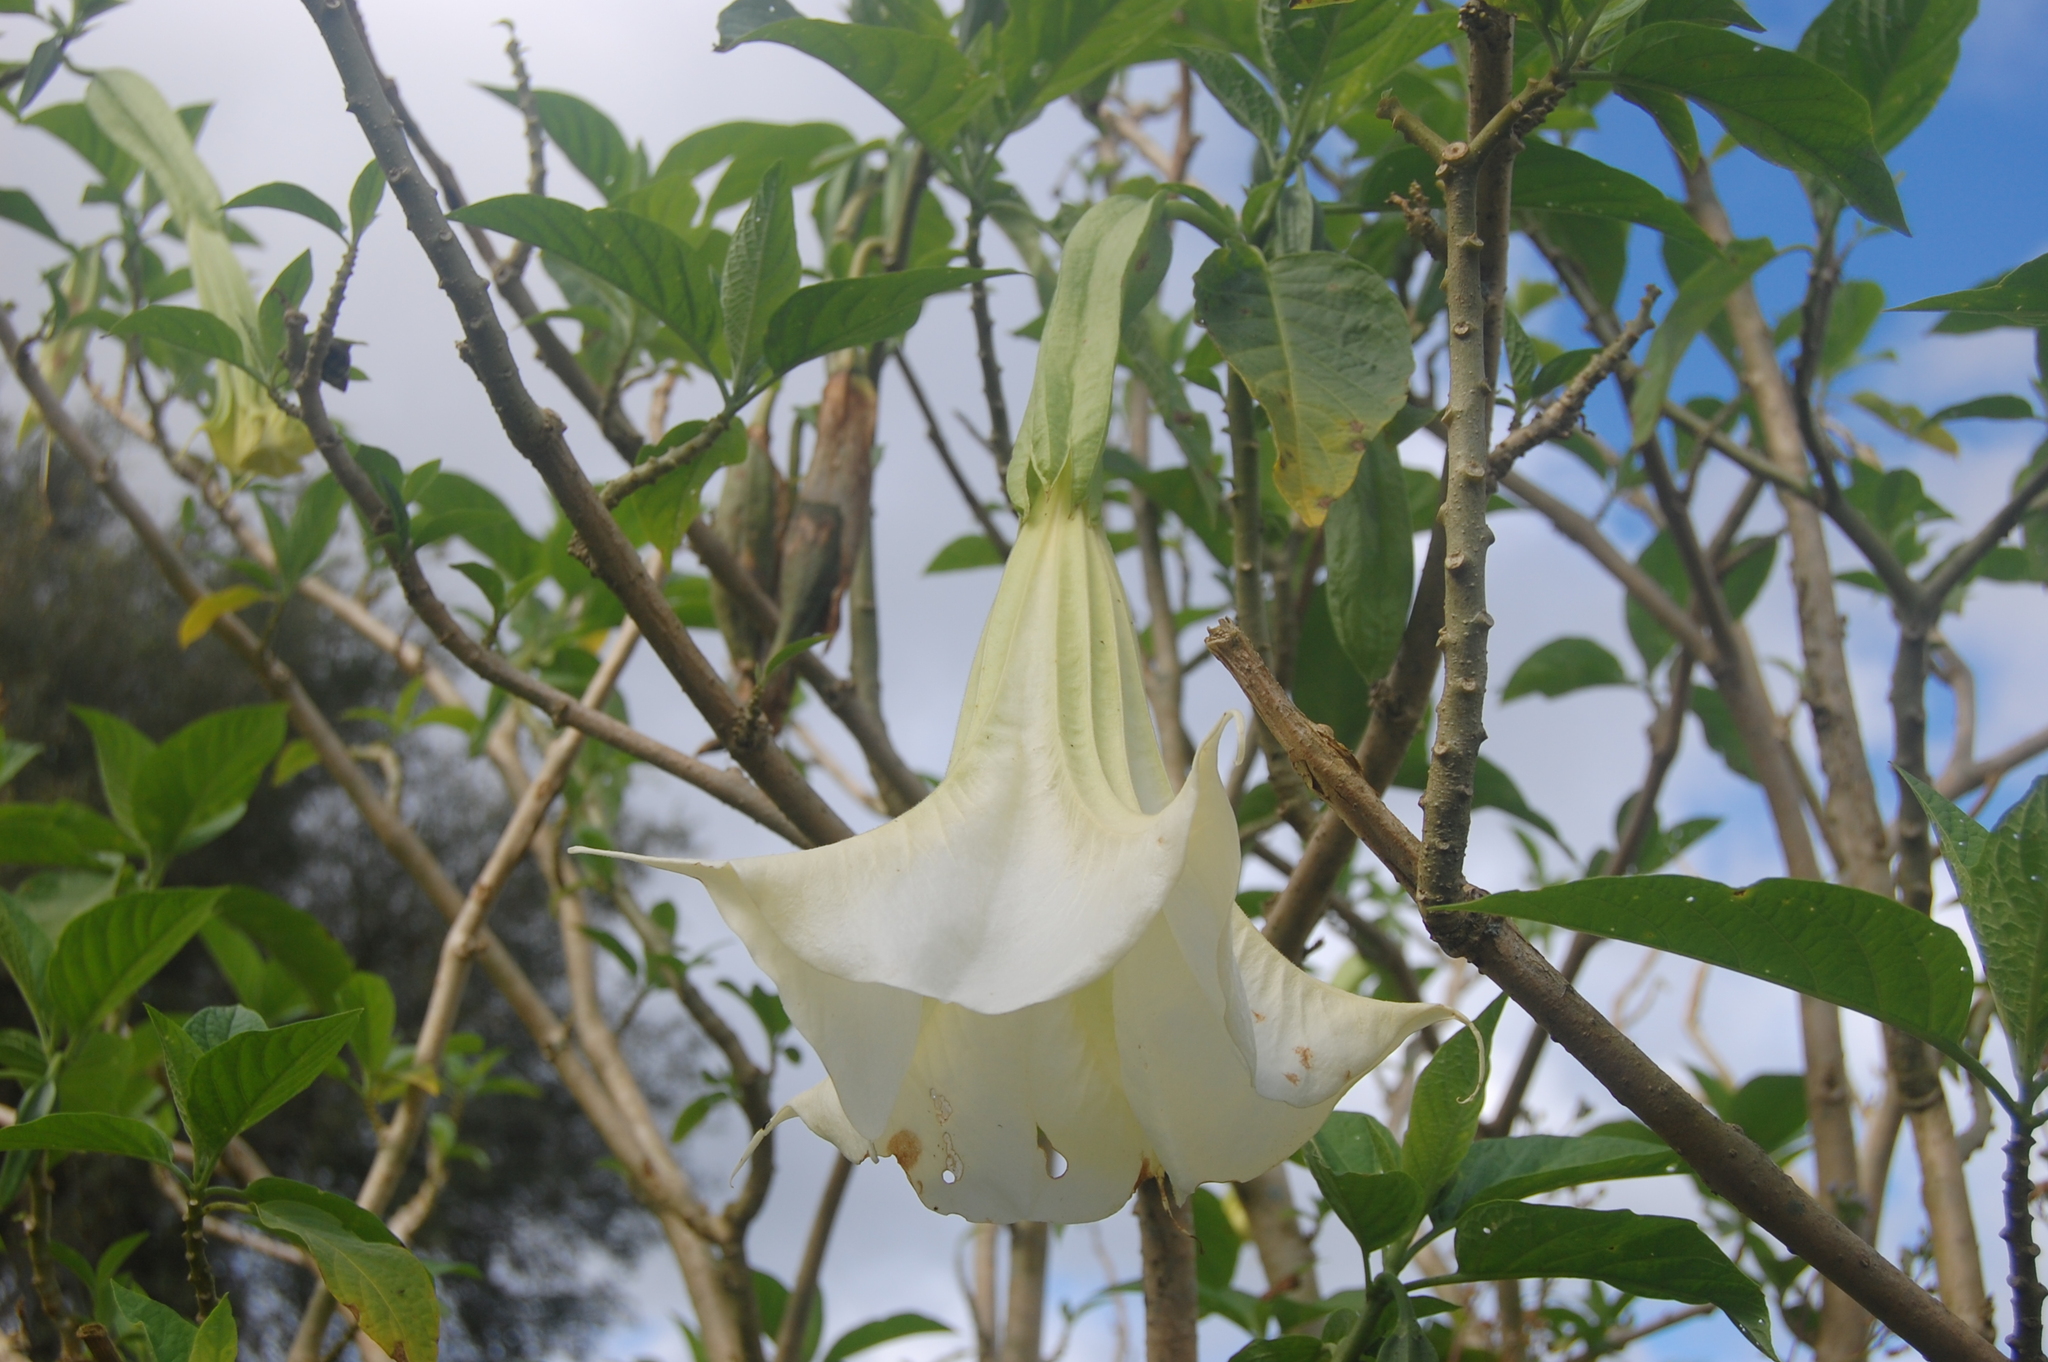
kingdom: Plantae
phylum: Tracheophyta
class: Magnoliopsida
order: Solanales
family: Solanaceae
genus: Brugmansia
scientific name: Brugmansia suaveolens
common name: Angel's tears
